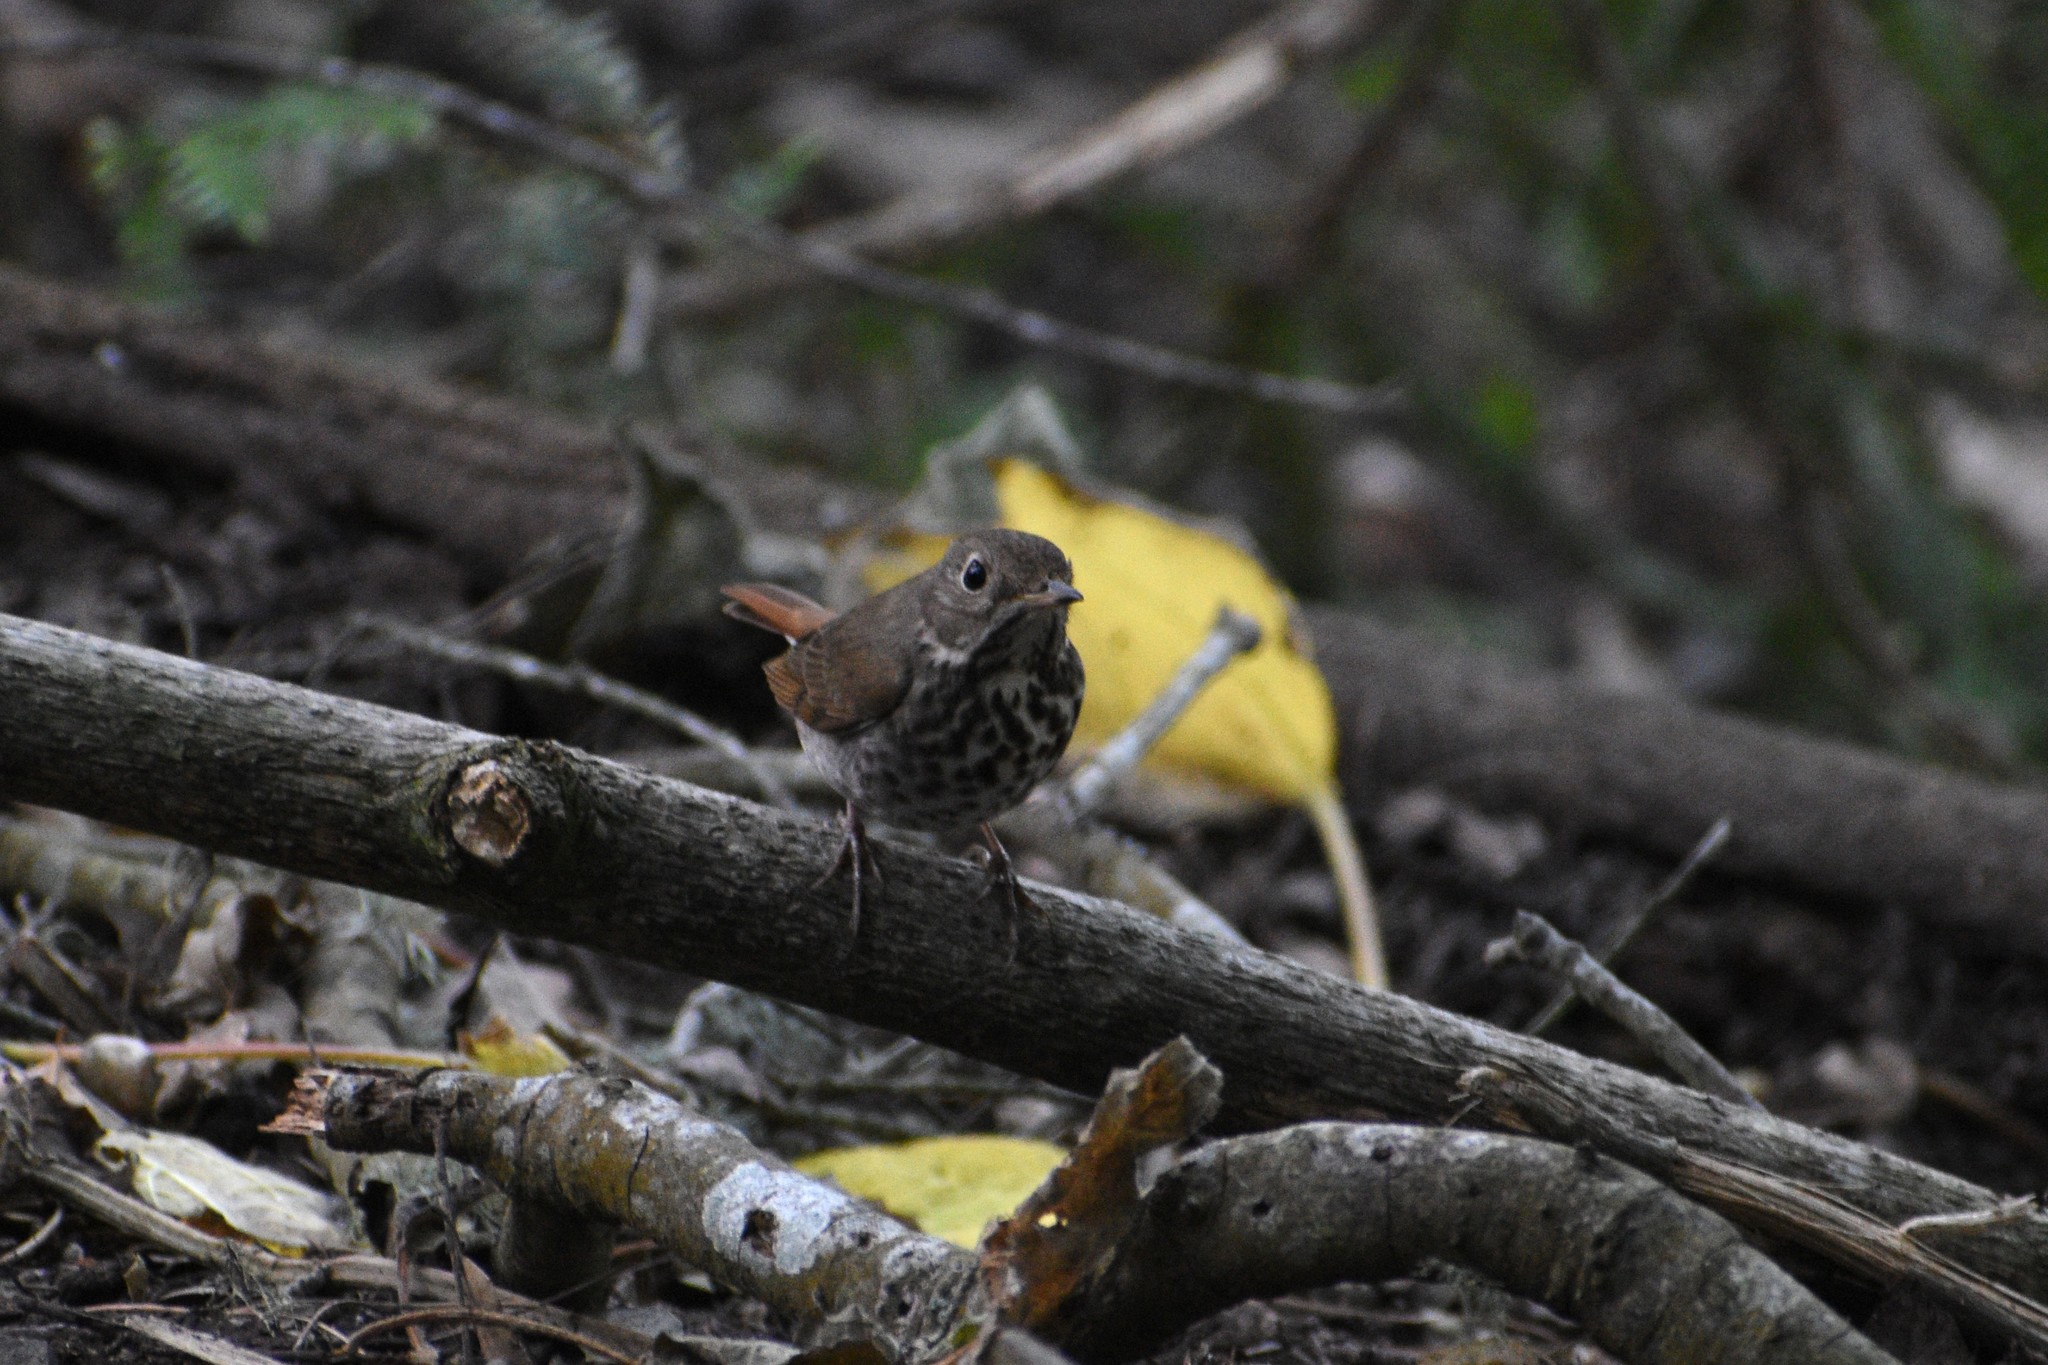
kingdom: Animalia
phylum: Chordata
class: Aves
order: Passeriformes
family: Turdidae
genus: Catharus
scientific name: Catharus guttatus
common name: Hermit thrush
